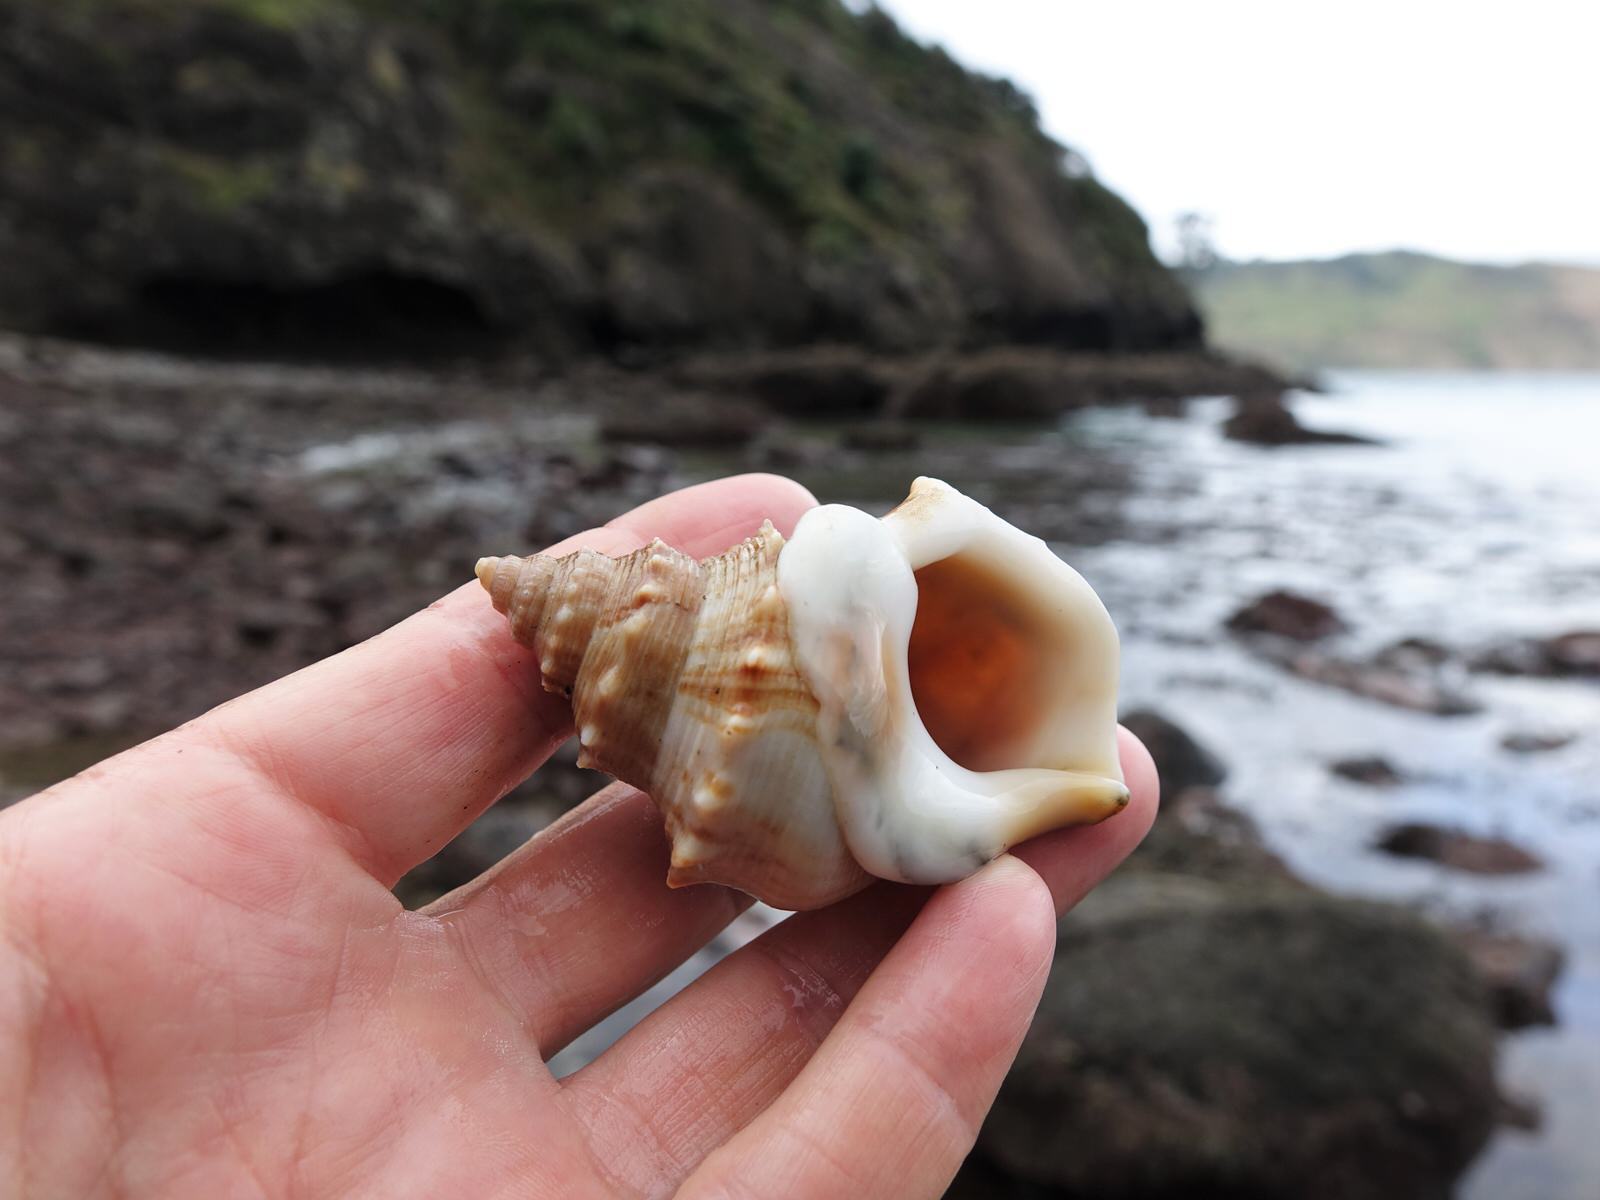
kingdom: Animalia
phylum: Mollusca
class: Gastropoda
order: Littorinimorpha
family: Struthiolariidae
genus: Struthiolaria
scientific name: Struthiolaria papulosa
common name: Large ostrich foot
